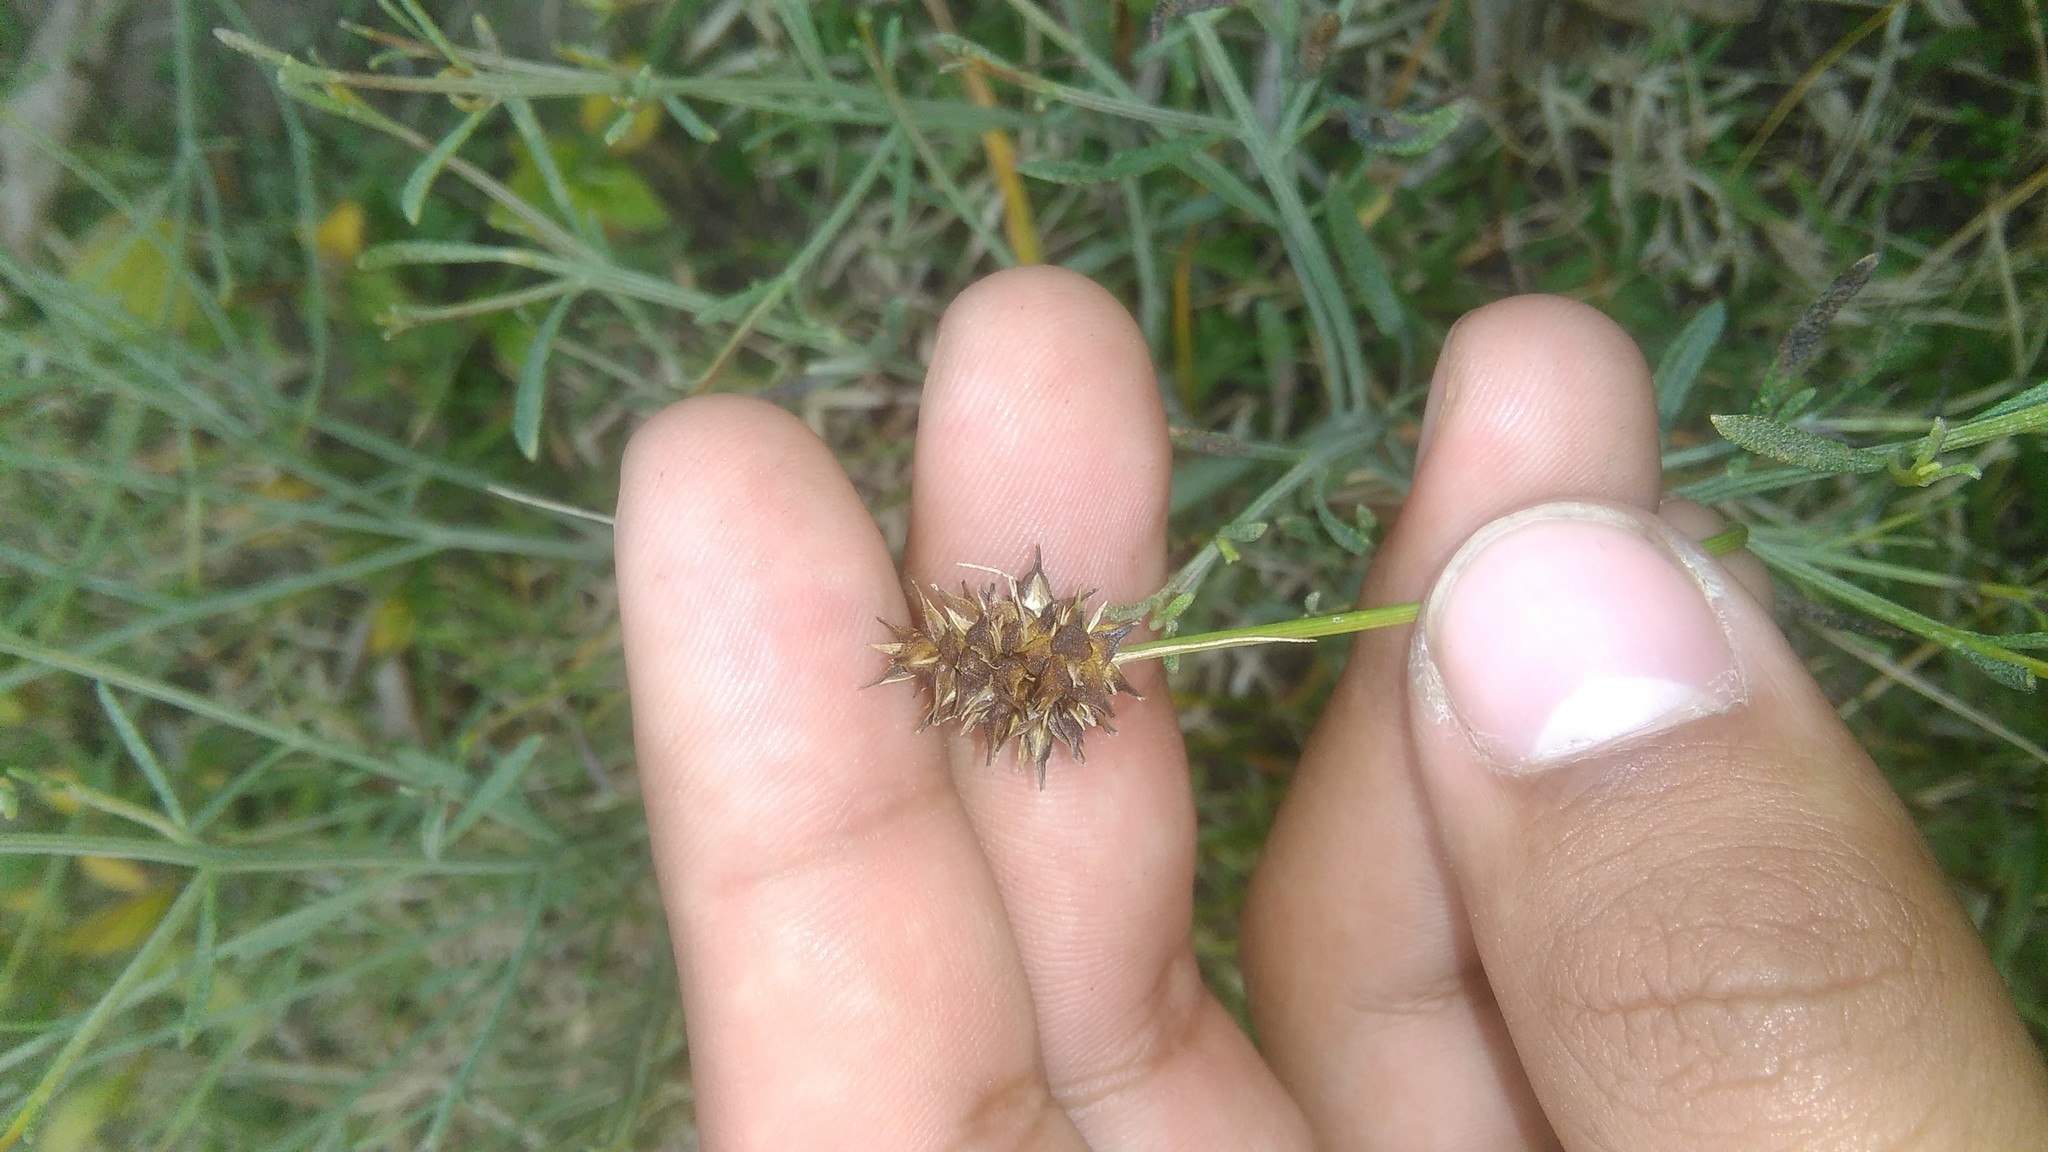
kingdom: Plantae
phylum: Tracheophyta
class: Liliopsida
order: Poales
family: Cyperaceae
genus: Carex
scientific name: Carex bonariensis
